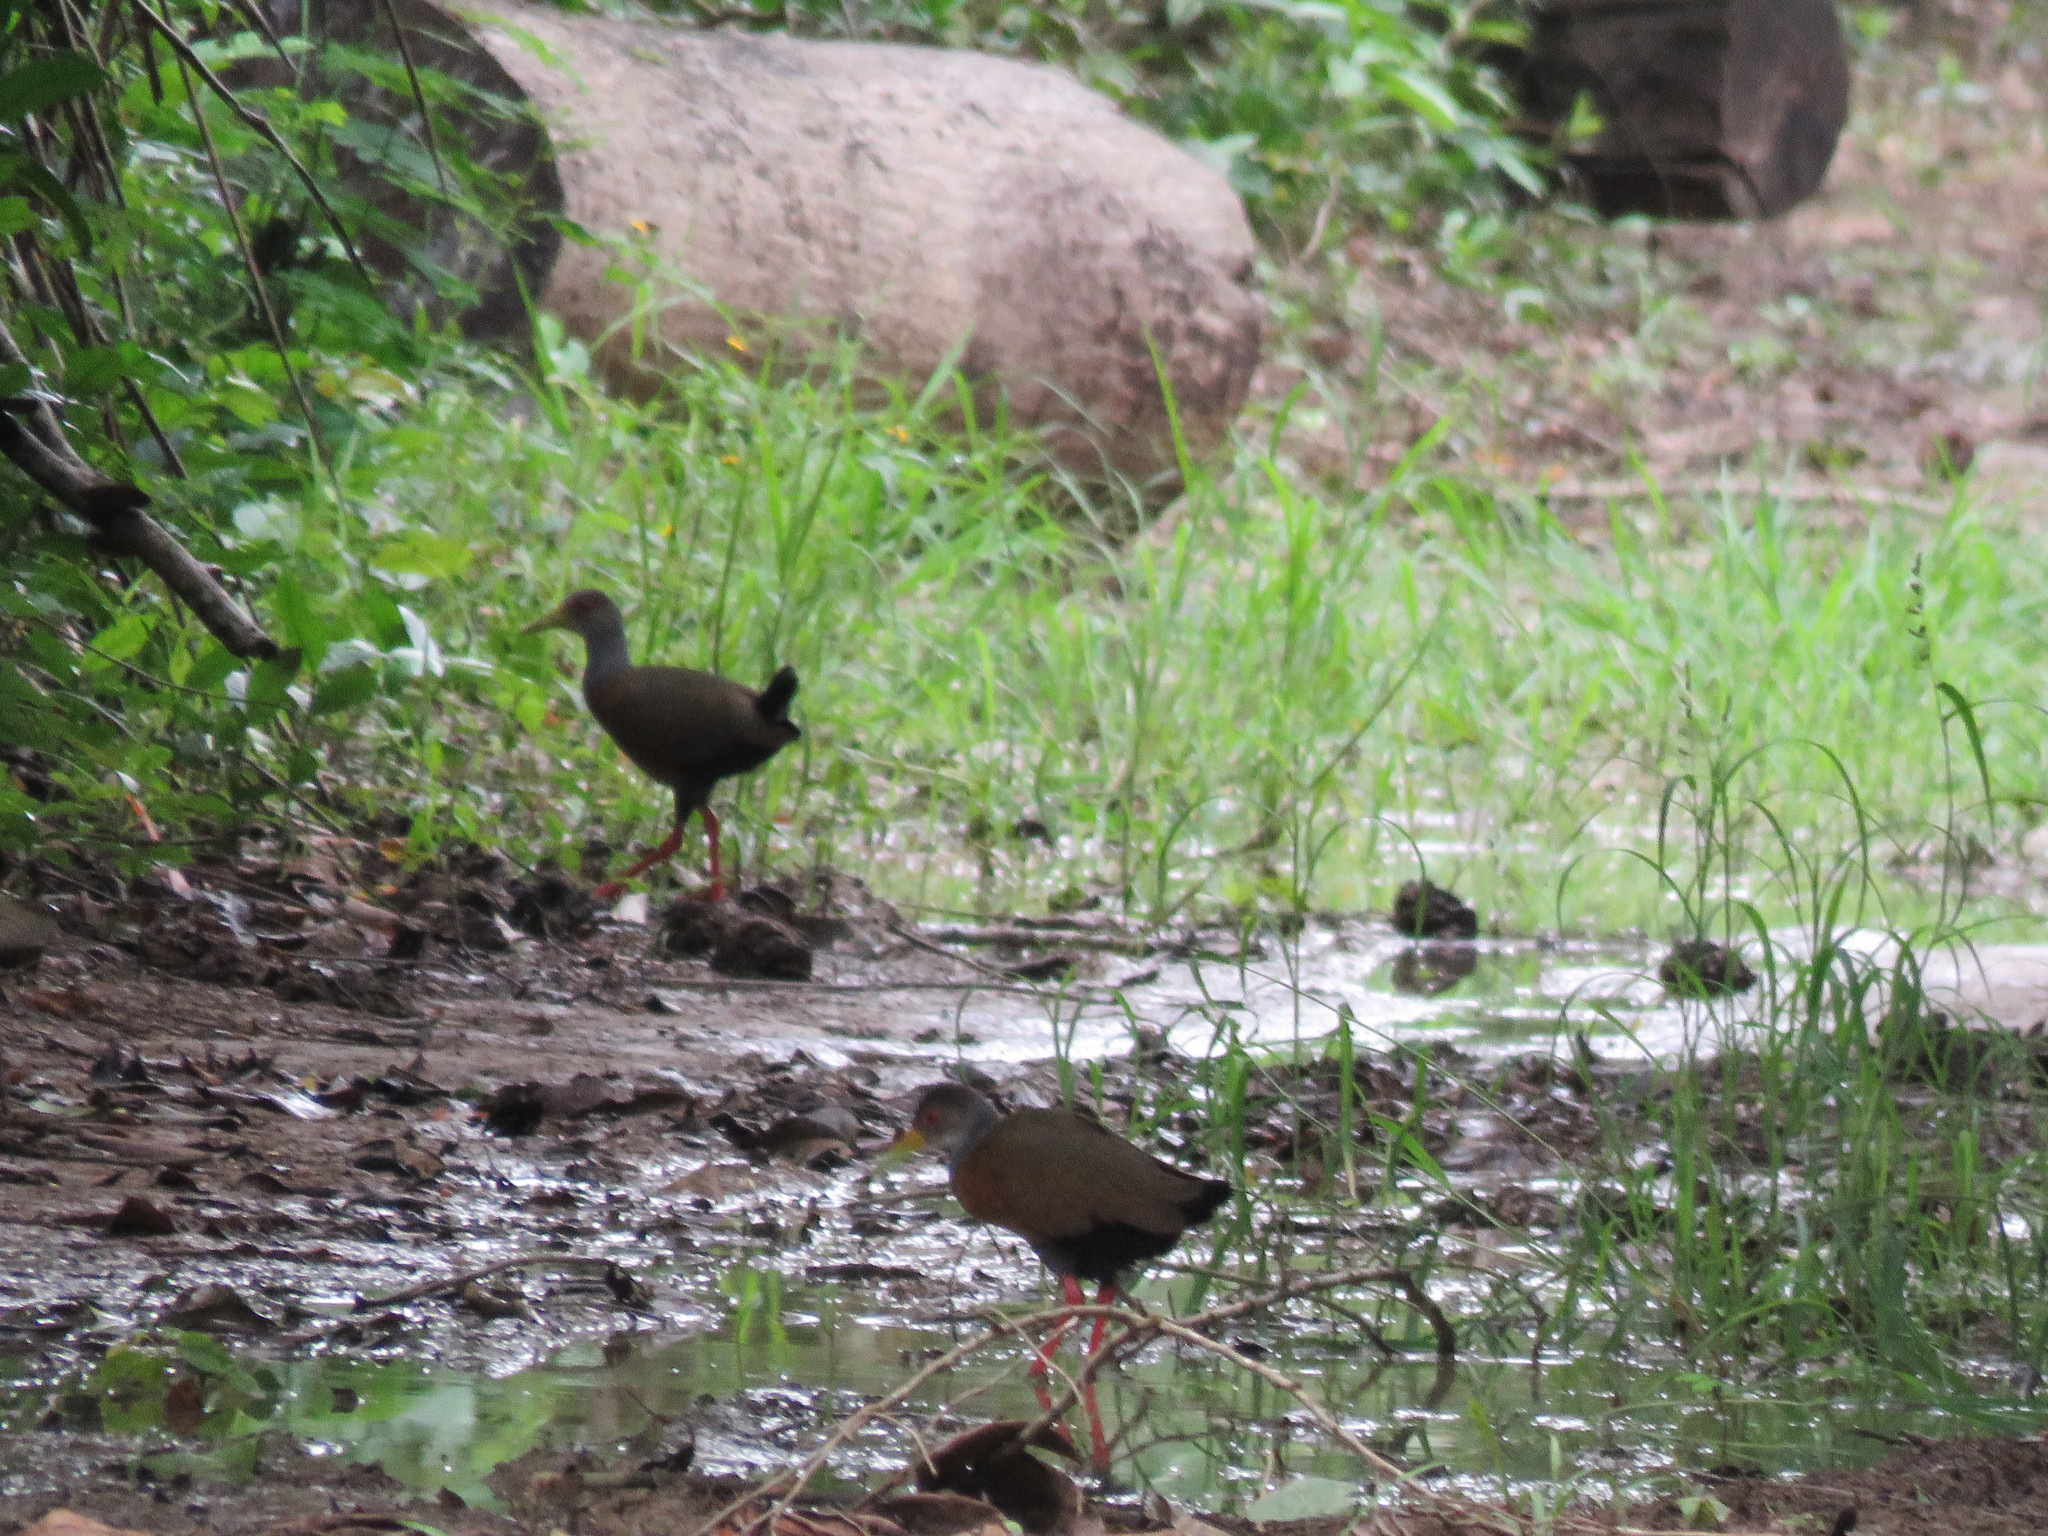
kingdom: Animalia
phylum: Chordata
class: Aves
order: Gruiformes
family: Rallidae
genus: Aramides
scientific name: Aramides cajanea
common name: Gray-necked wood-rail
